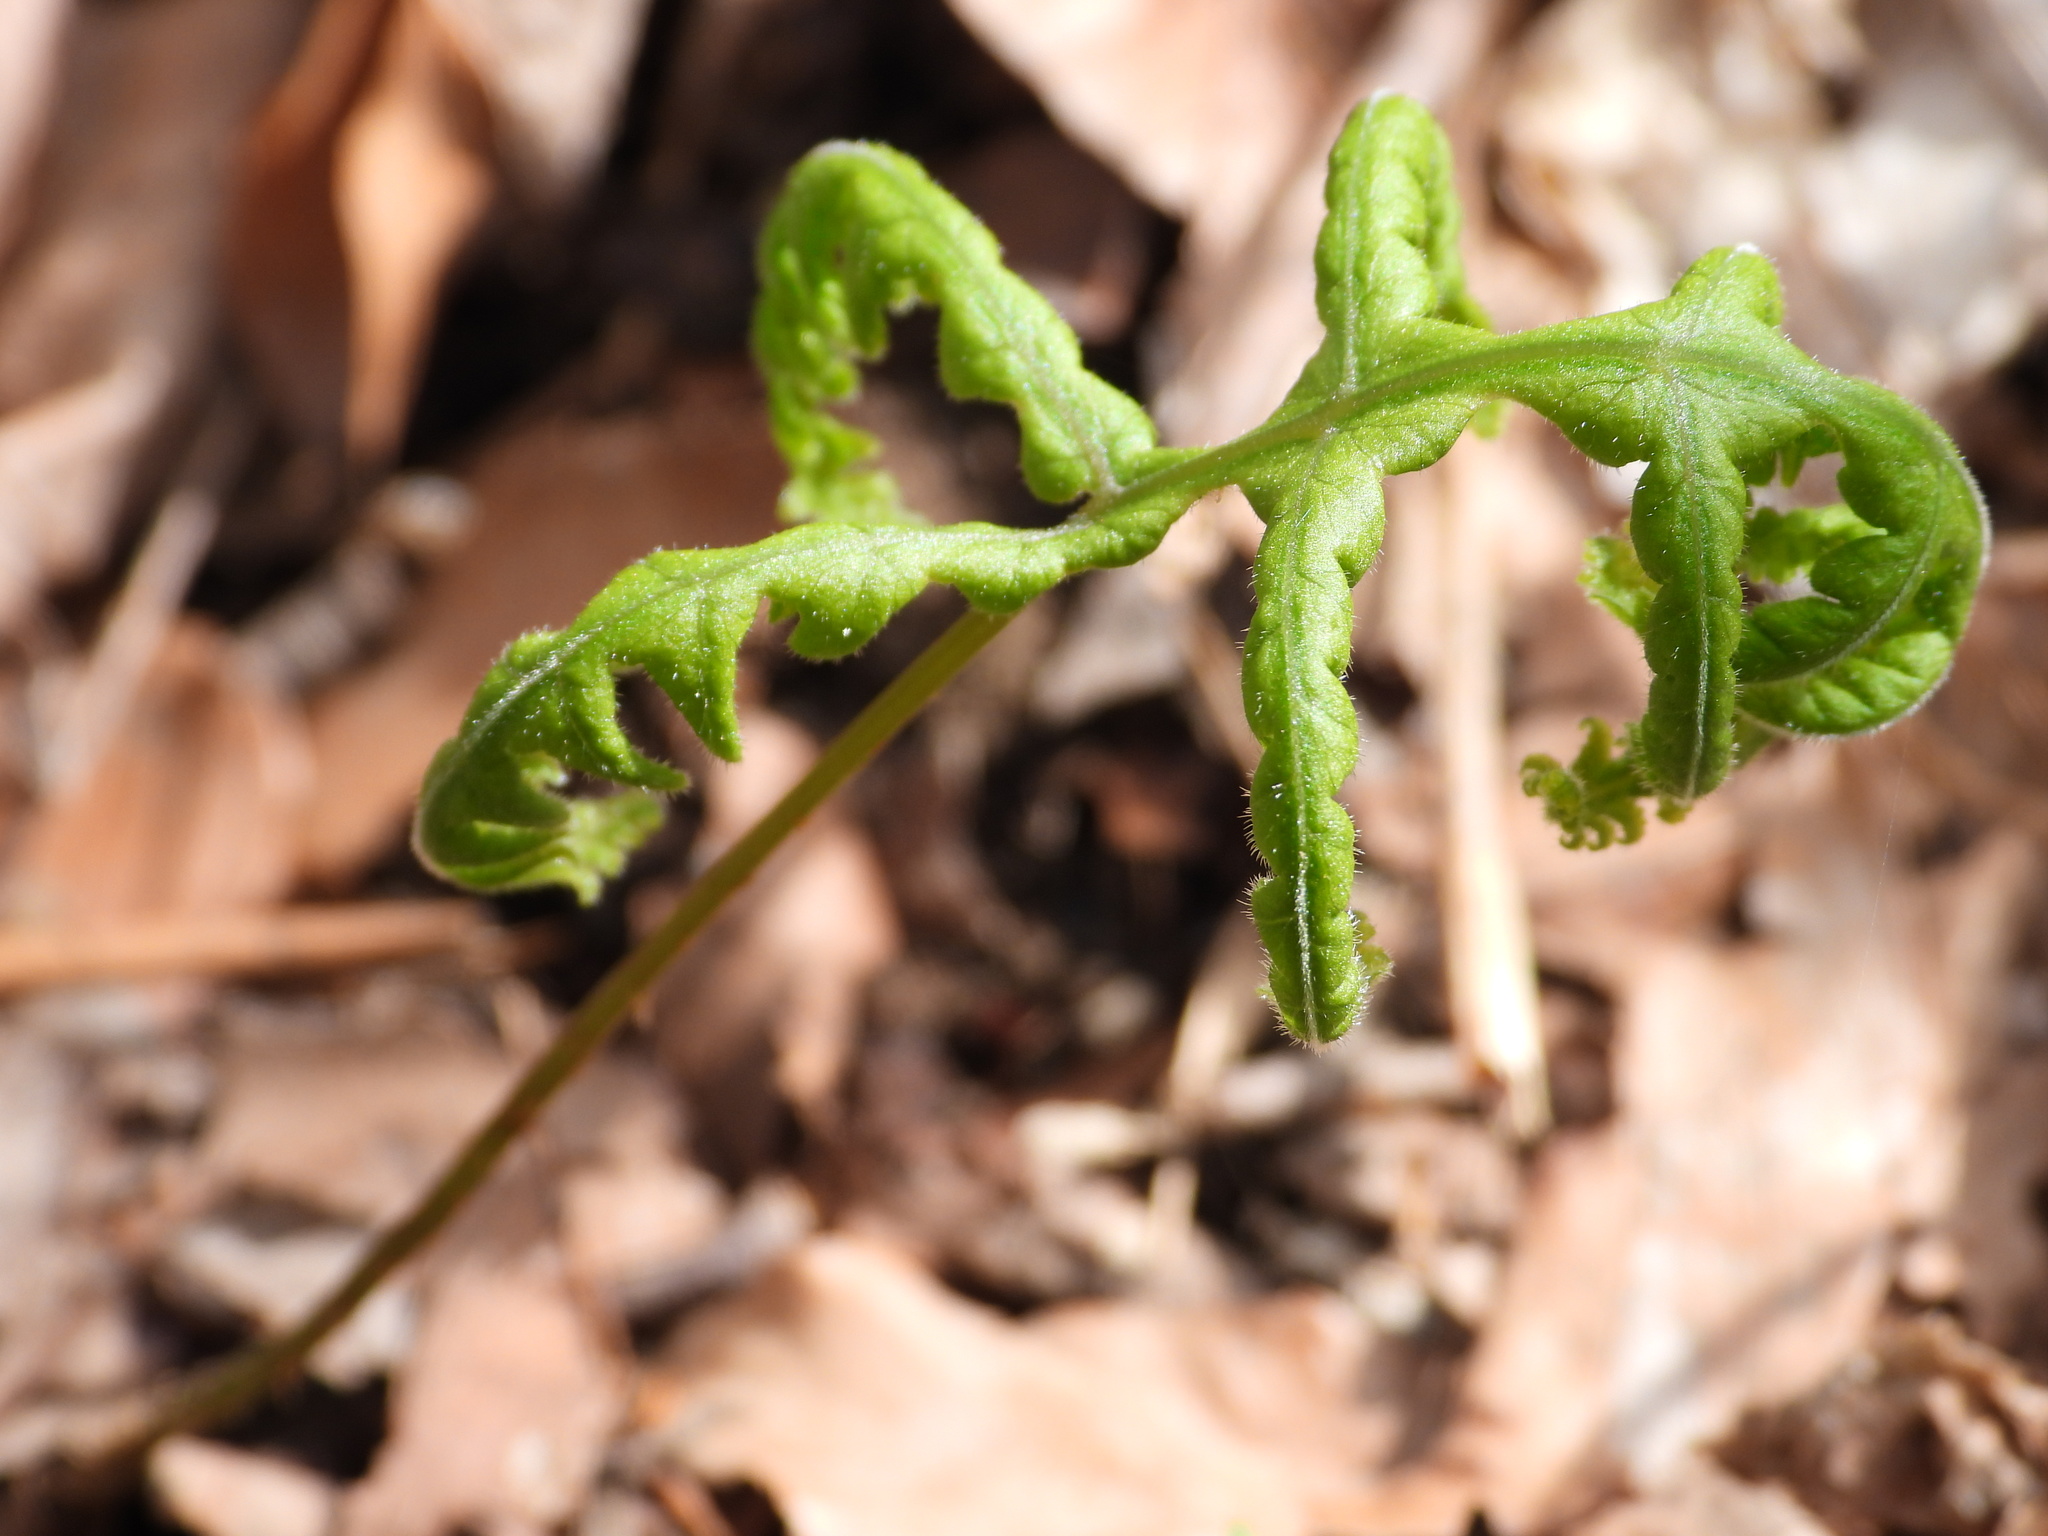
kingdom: Plantae
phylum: Tracheophyta
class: Polypodiopsida
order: Polypodiales
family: Thelypteridaceae
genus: Phegopteris
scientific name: Phegopteris hexagonoptera
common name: Broad beech fern
